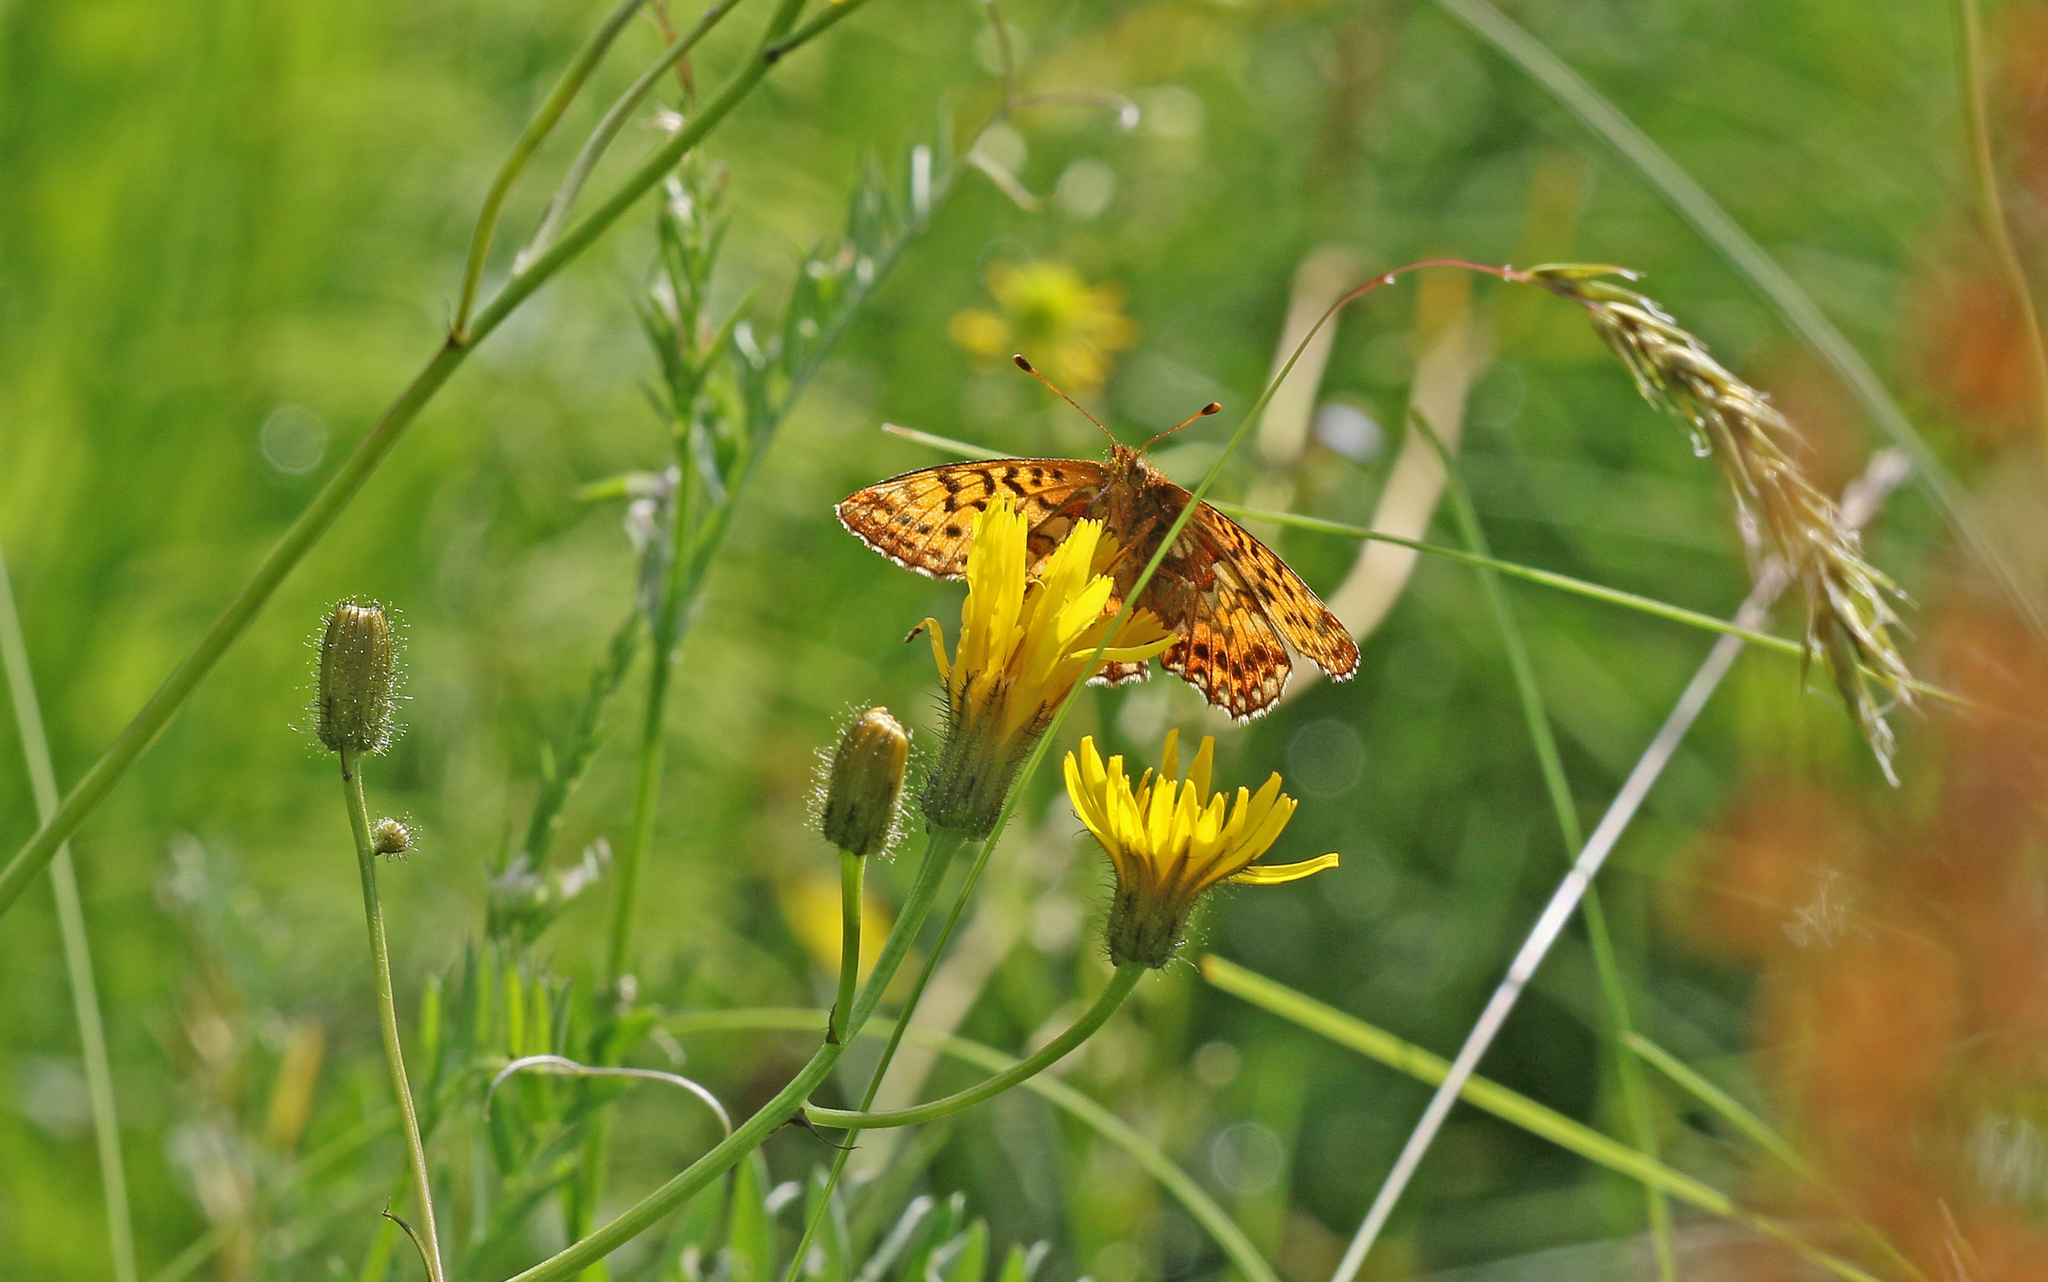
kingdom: Animalia
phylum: Arthropoda
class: Insecta
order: Lepidoptera
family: Nymphalidae
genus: Boloria
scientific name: Boloria aquilonaris
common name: Cranberry fritillary
